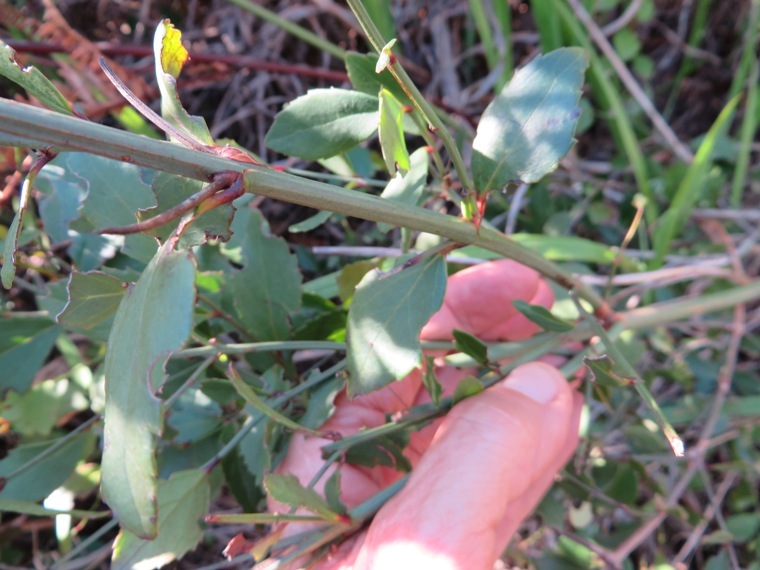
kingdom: Plantae
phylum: Tracheophyta
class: Magnoliopsida
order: Lamiales
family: Stilbaceae
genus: Halleria
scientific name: Halleria elliptica
